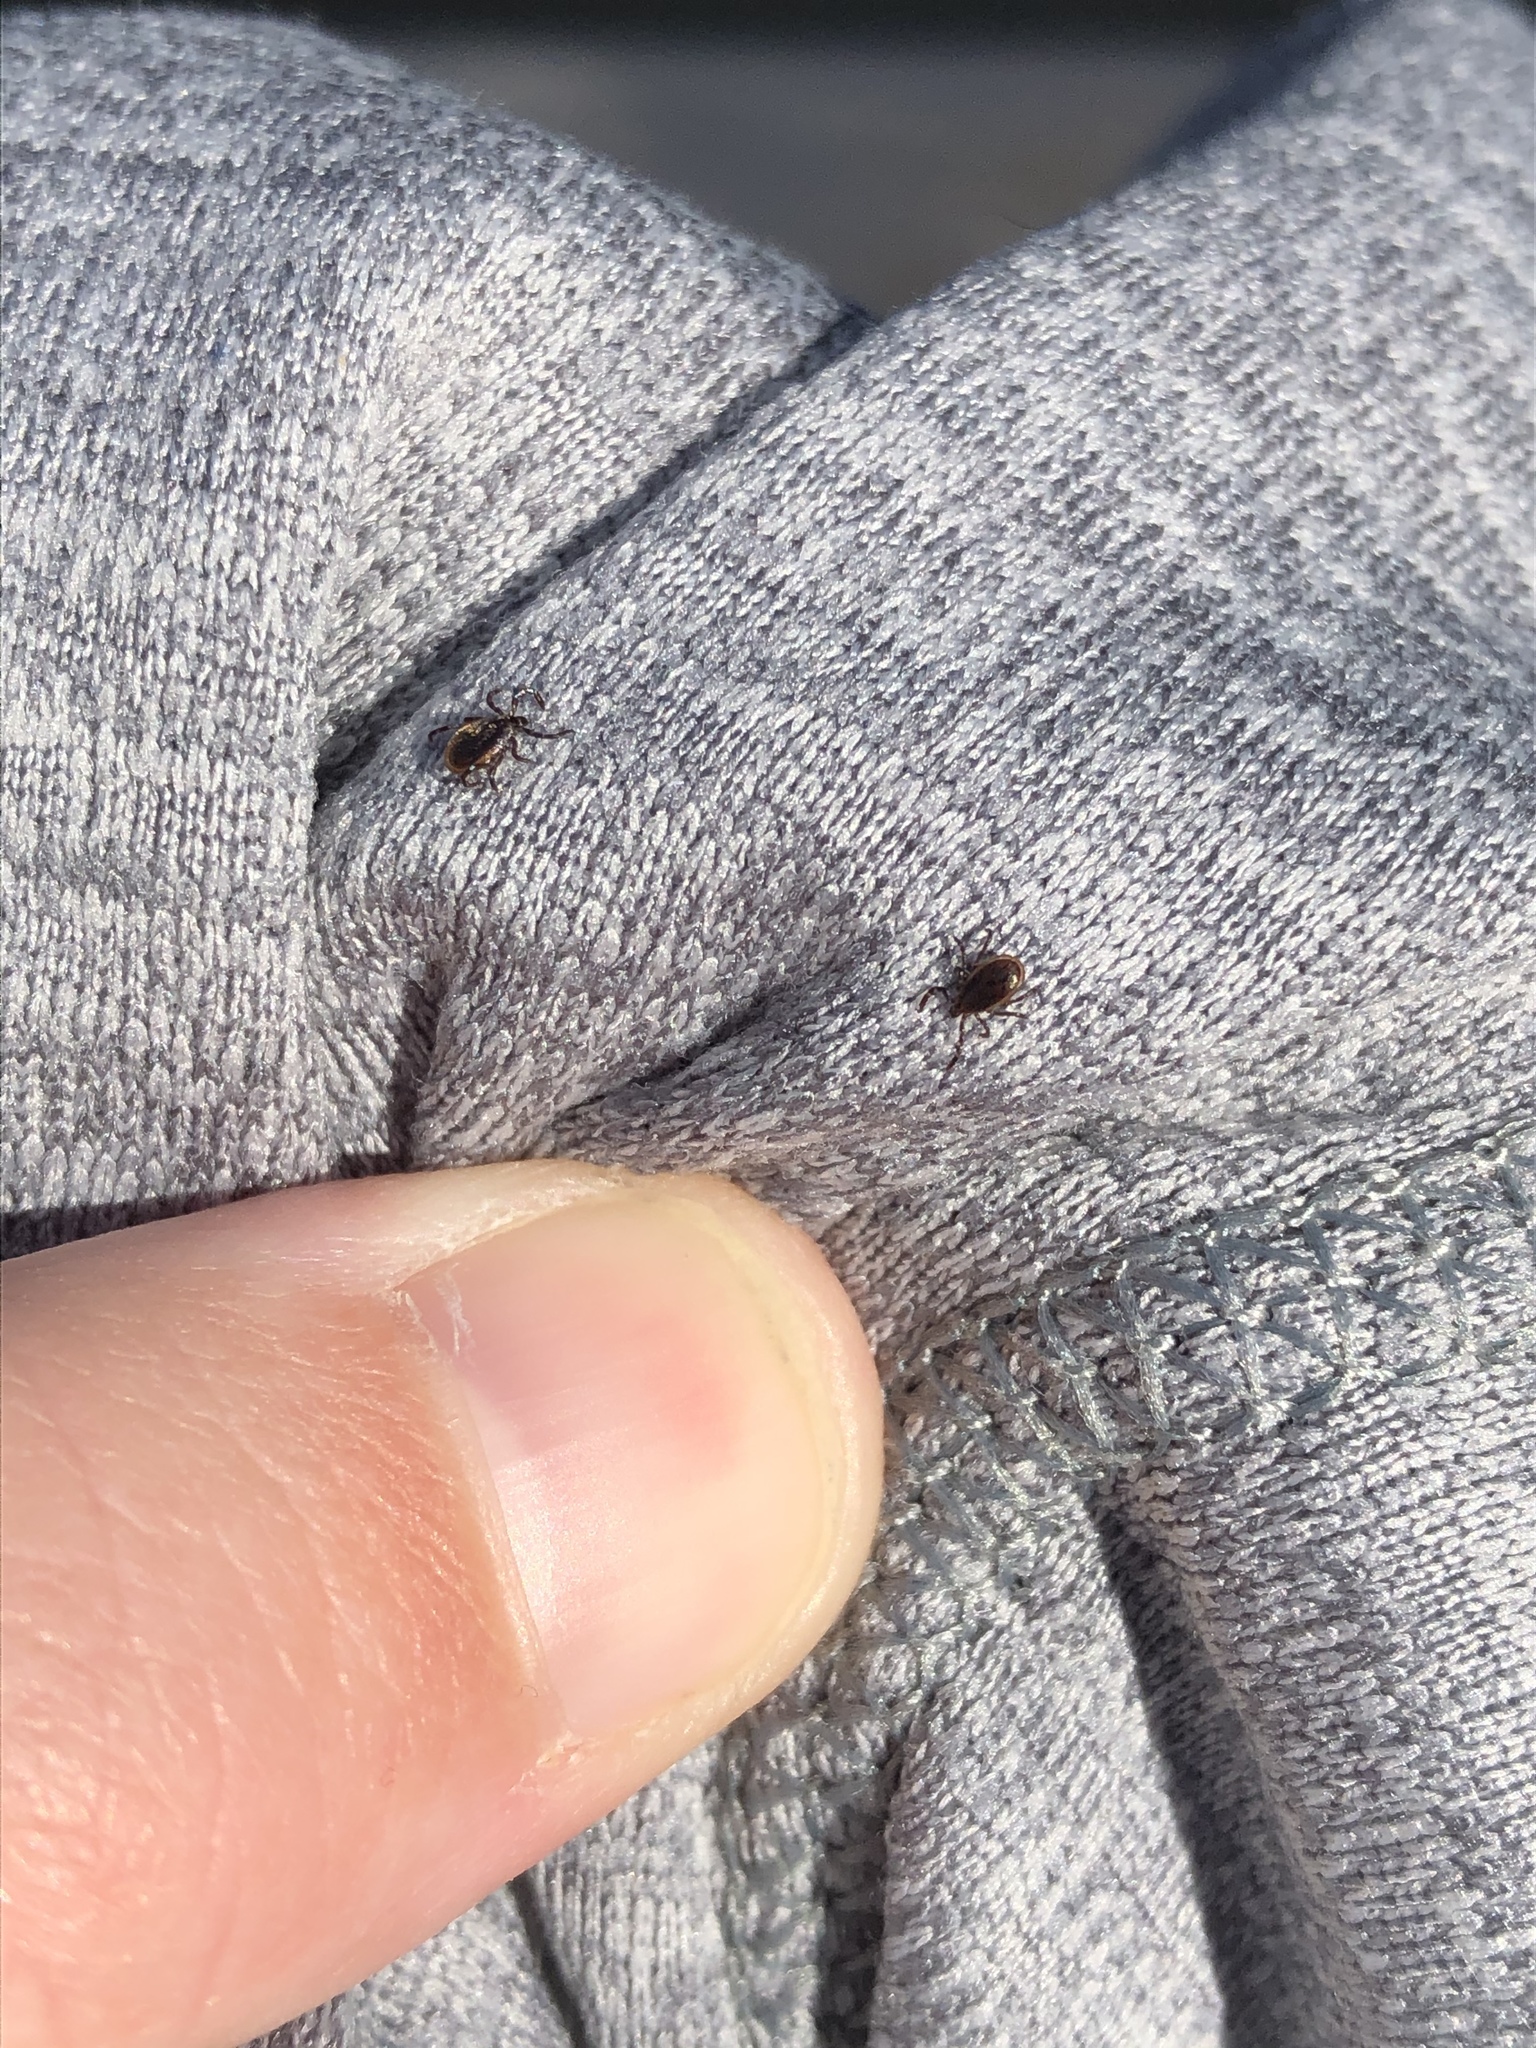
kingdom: Animalia
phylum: Arthropoda
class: Arachnida
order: Ixodida
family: Ixodidae
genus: Ixodes
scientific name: Ixodes scapularis
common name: Black legged tick
